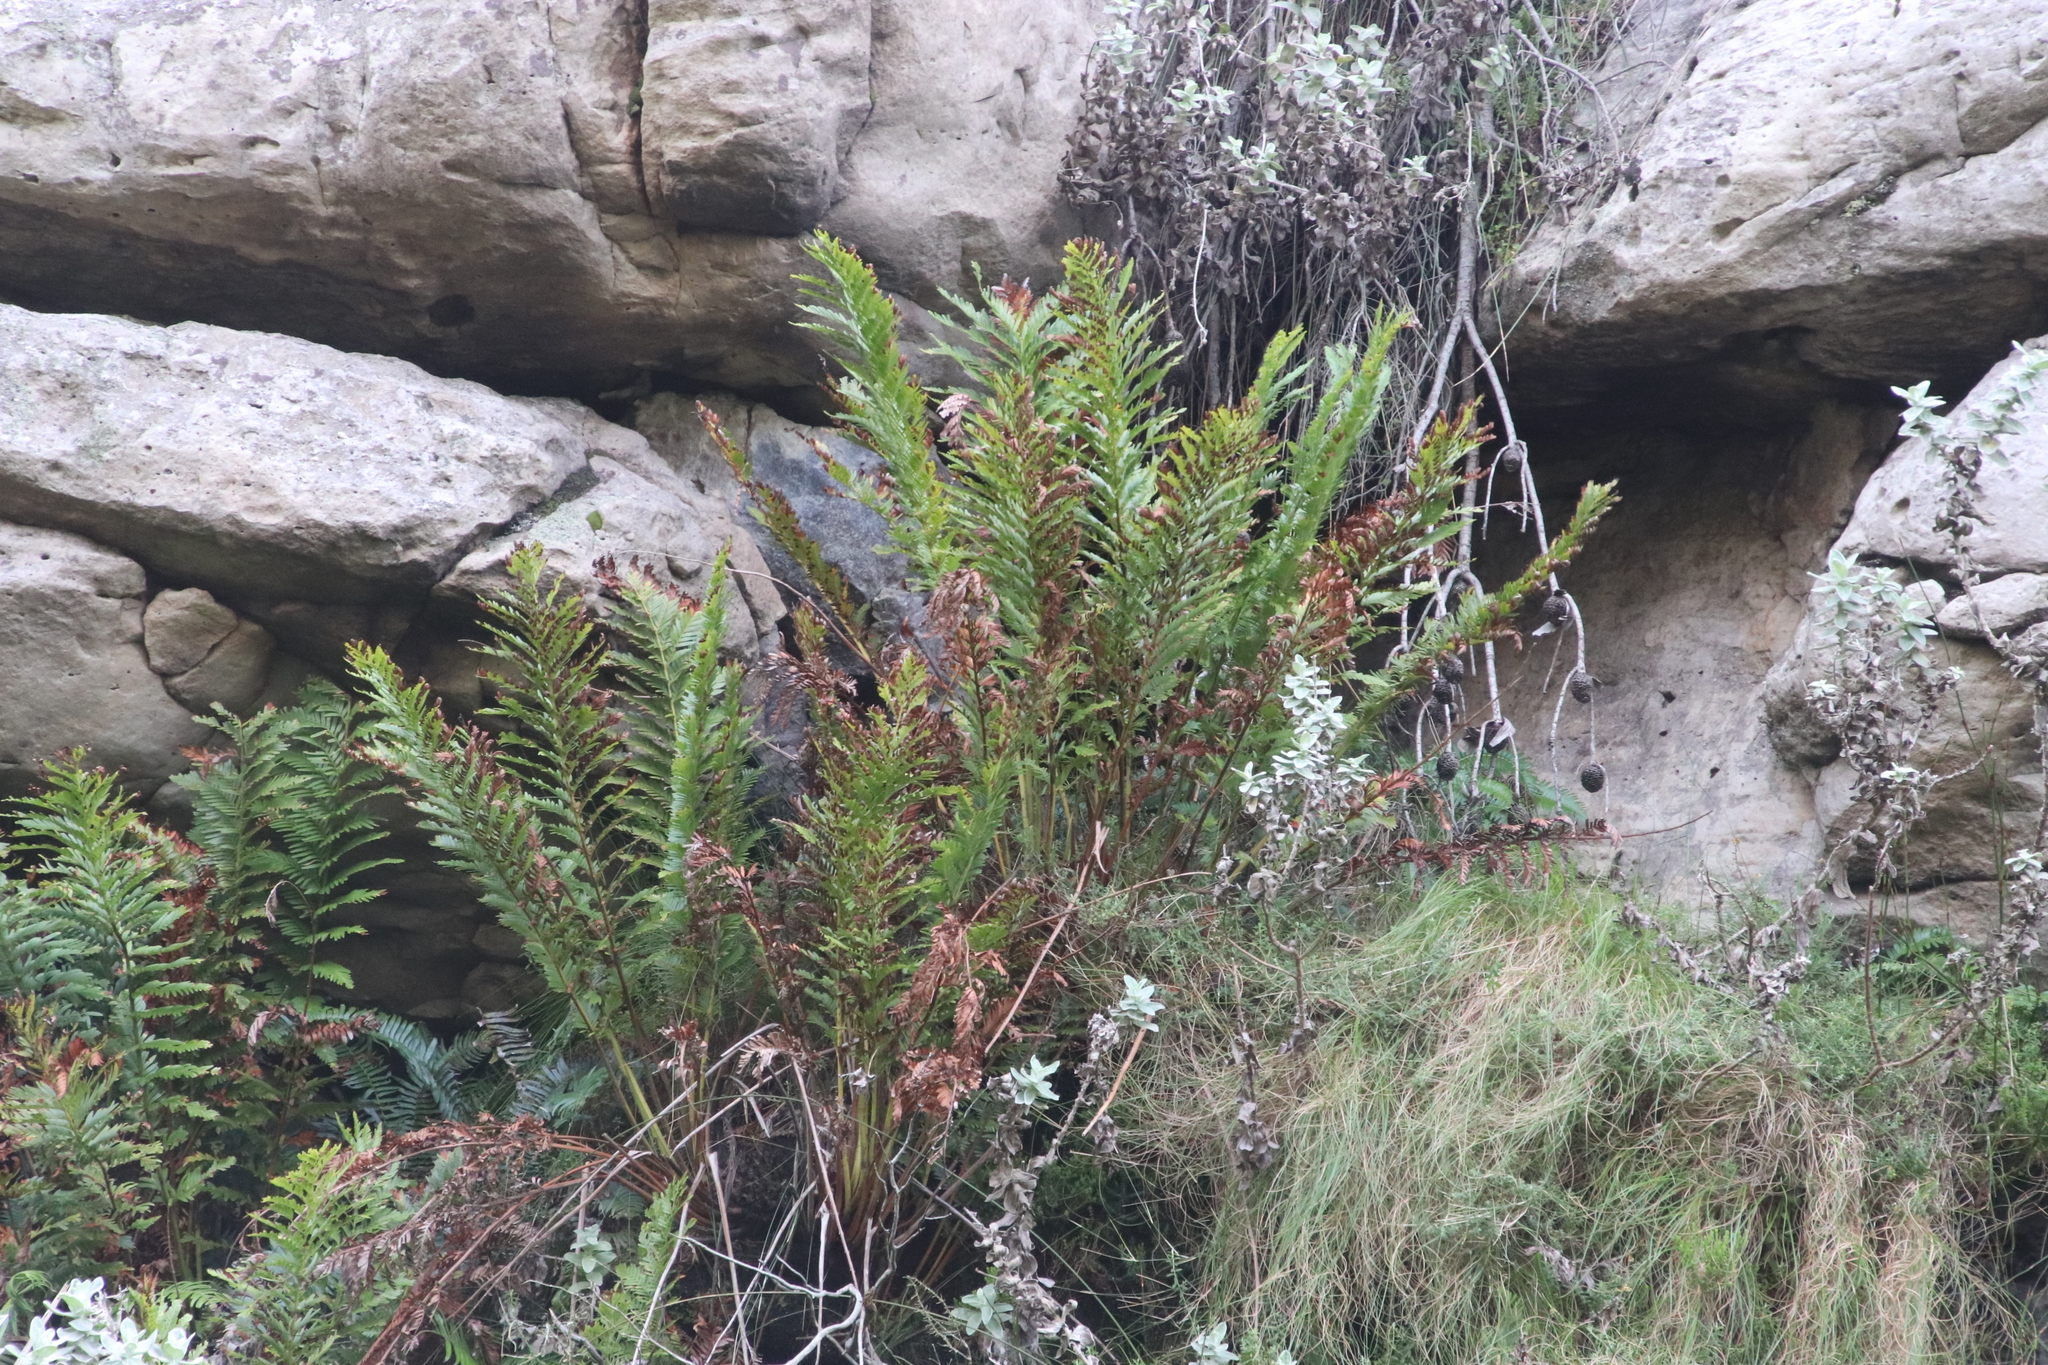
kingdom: Plantae
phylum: Tracheophyta
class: Polypodiopsida
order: Osmundales
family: Osmundaceae
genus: Todea
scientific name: Todea barbara
